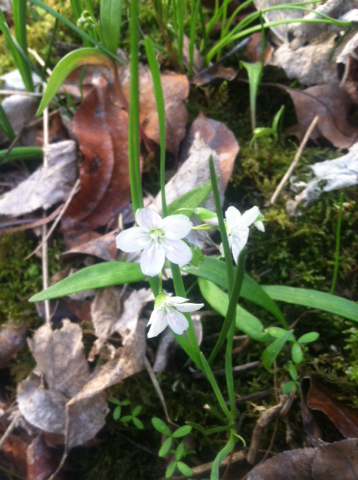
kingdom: Plantae
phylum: Tracheophyta
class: Magnoliopsida
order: Caryophyllales
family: Montiaceae
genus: Claytonia
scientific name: Claytonia virginica
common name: Virginia springbeauty
